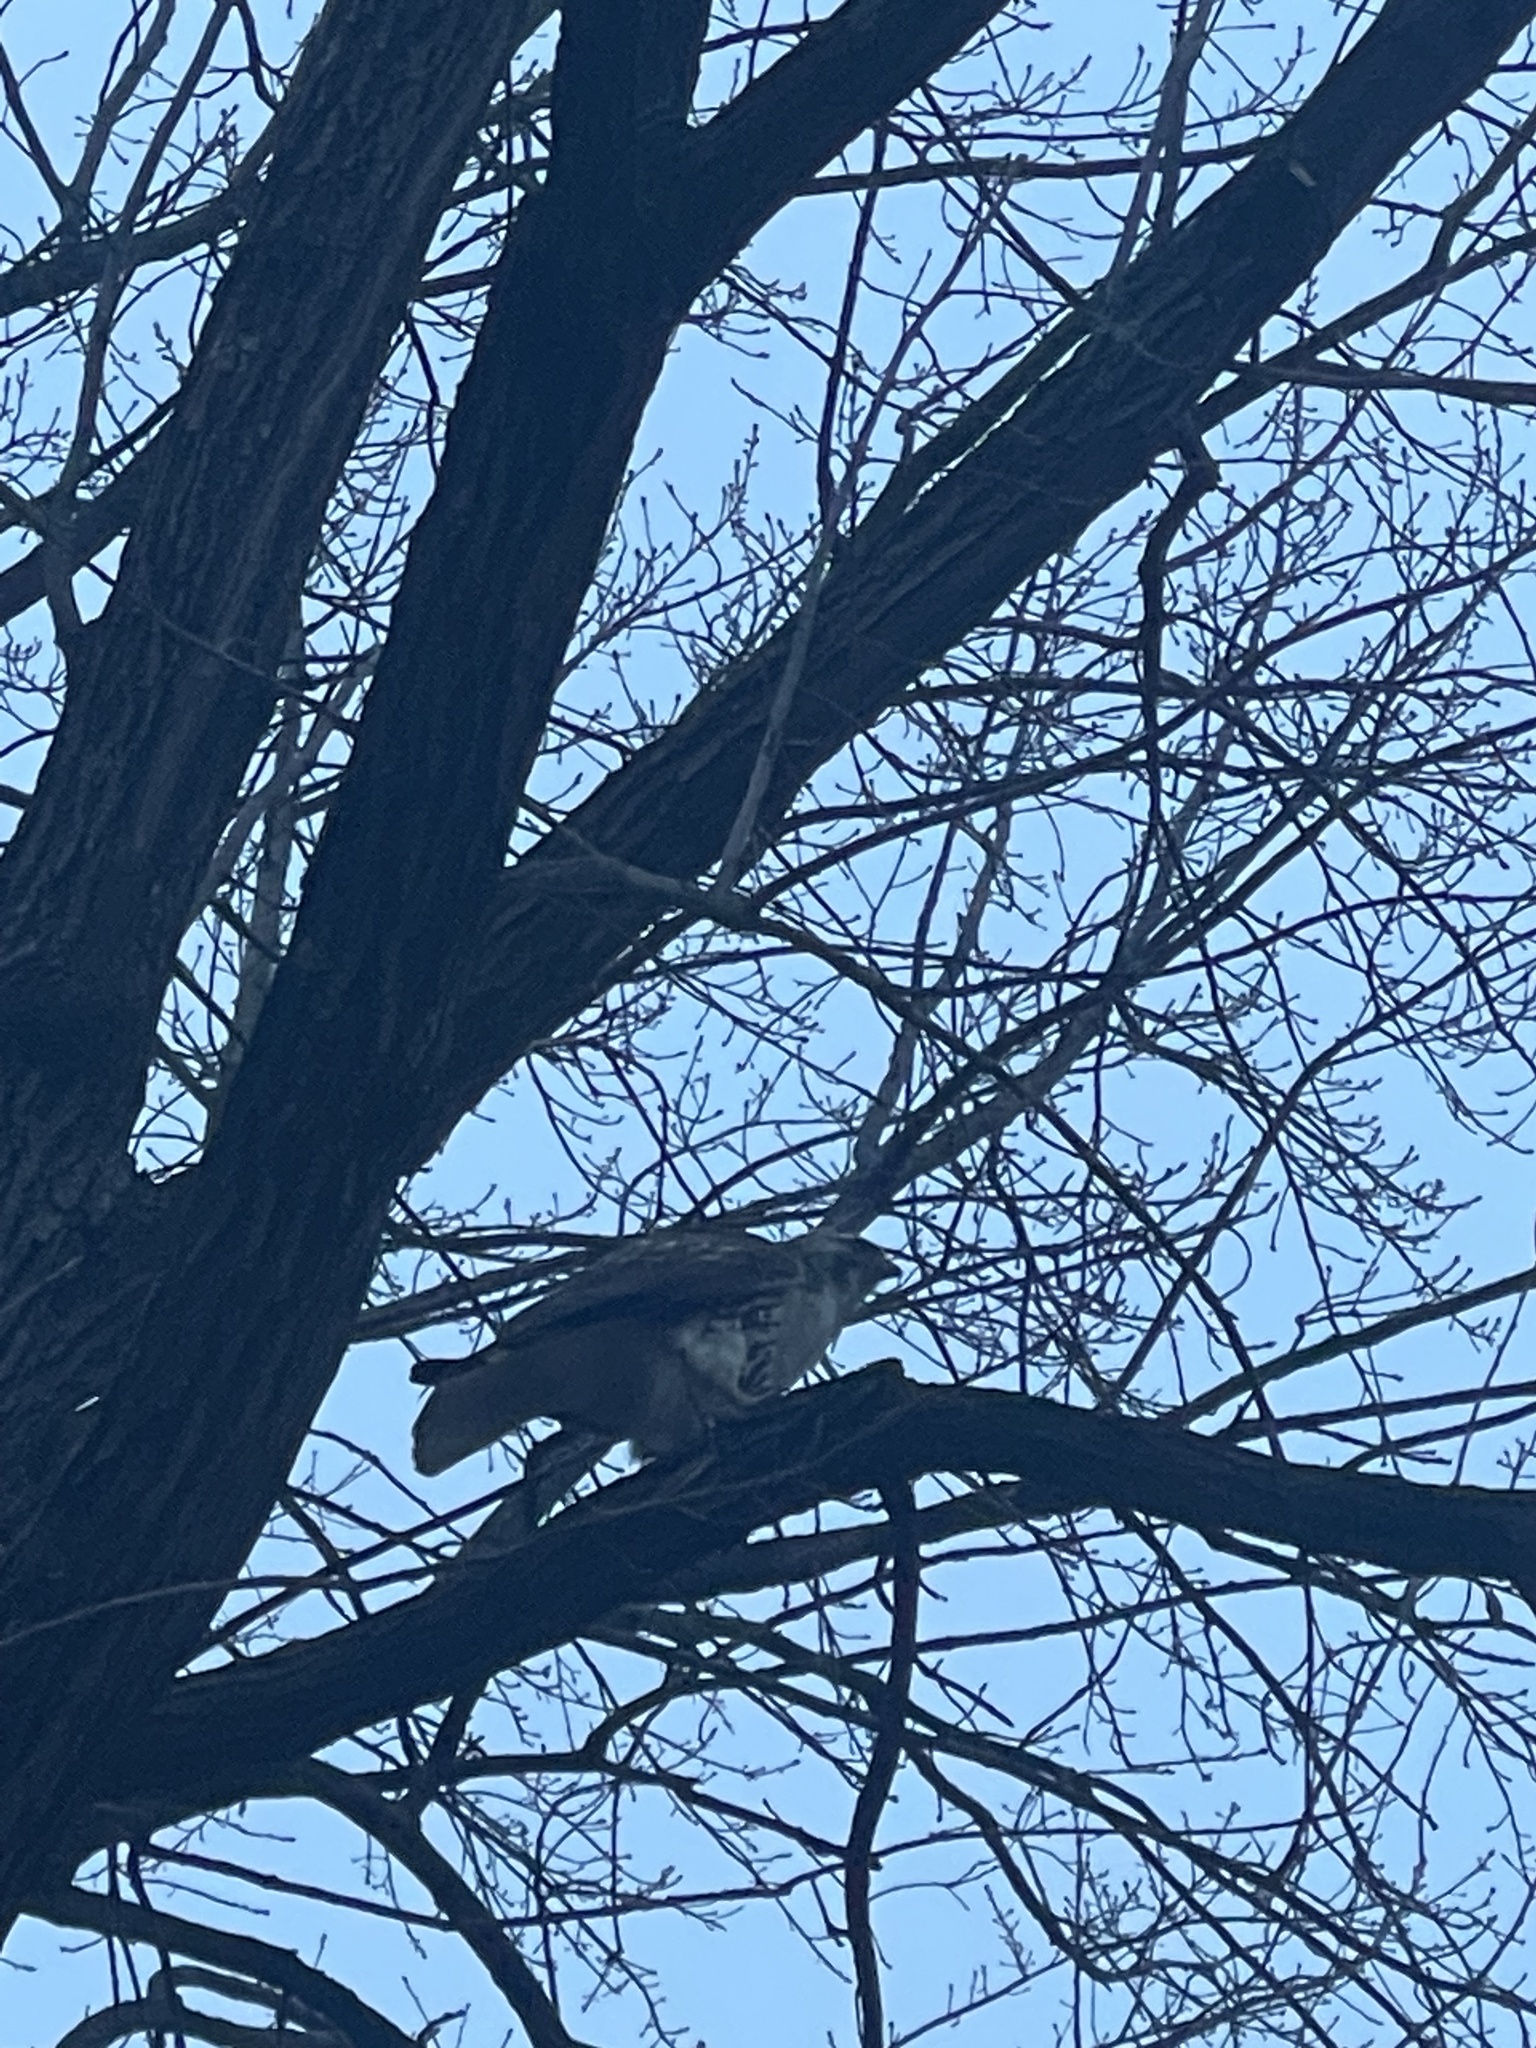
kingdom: Animalia
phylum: Chordata
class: Aves
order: Accipitriformes
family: Accipitridae
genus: Buteo
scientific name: Buteo jamaicensis
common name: Red-tailed hawk
